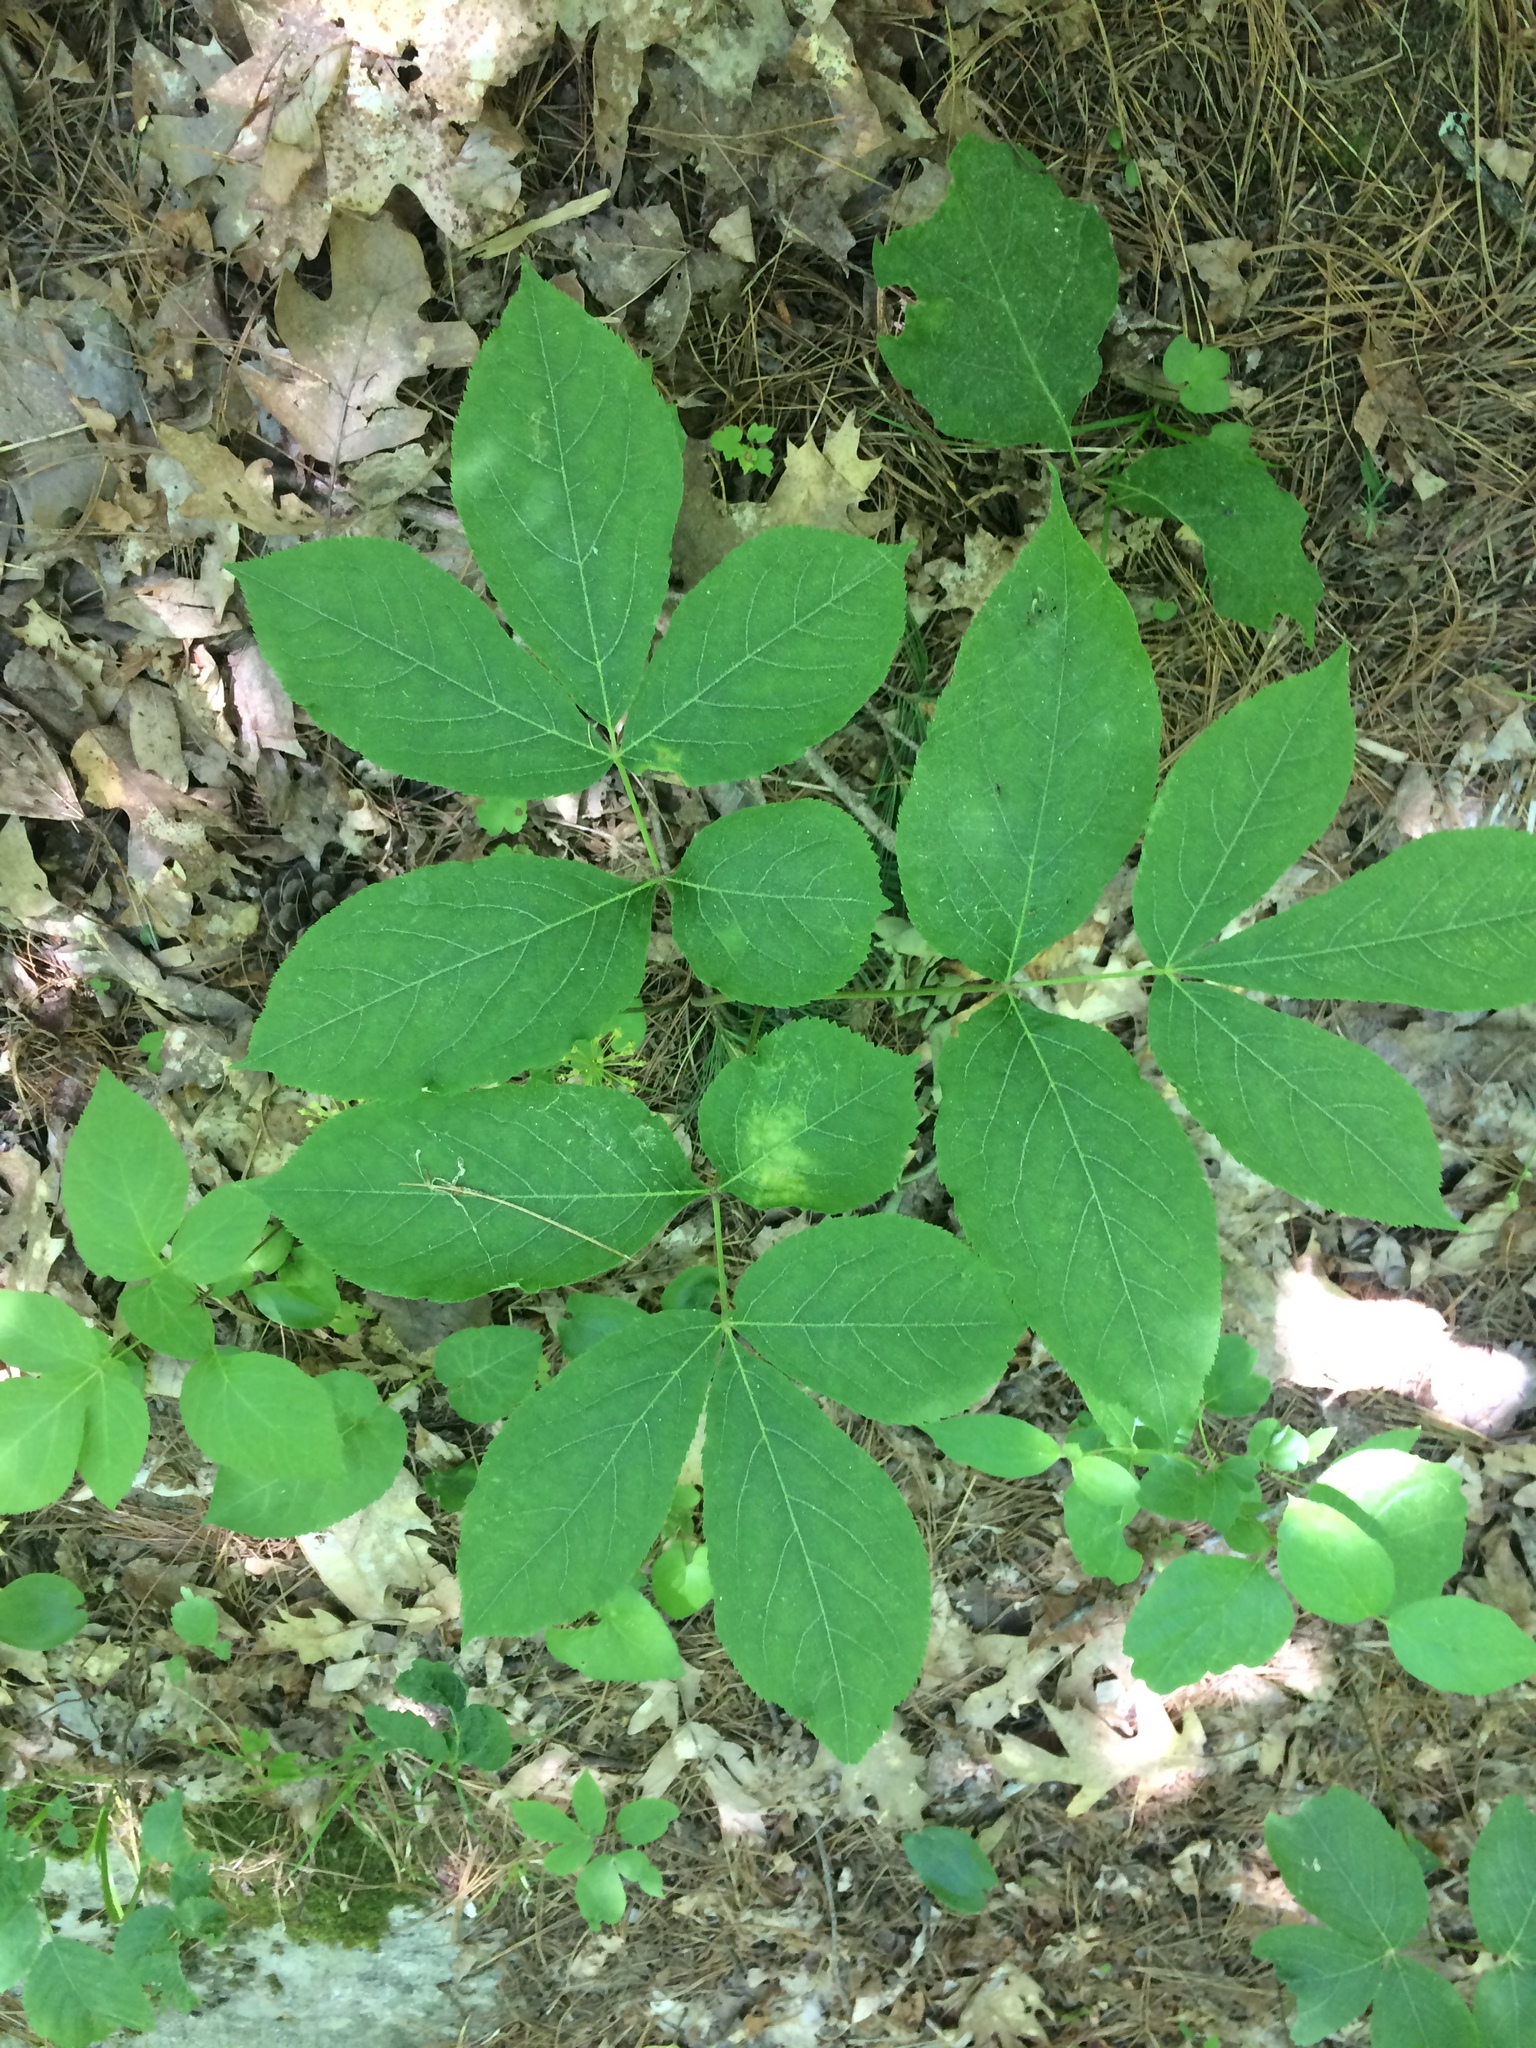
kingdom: Plantae
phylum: Tracheophyta
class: Magnoliopsida
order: Apiales
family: Araliaceae
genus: Aralia
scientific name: Aralia nudicaulis
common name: Wild sarsaparilla
